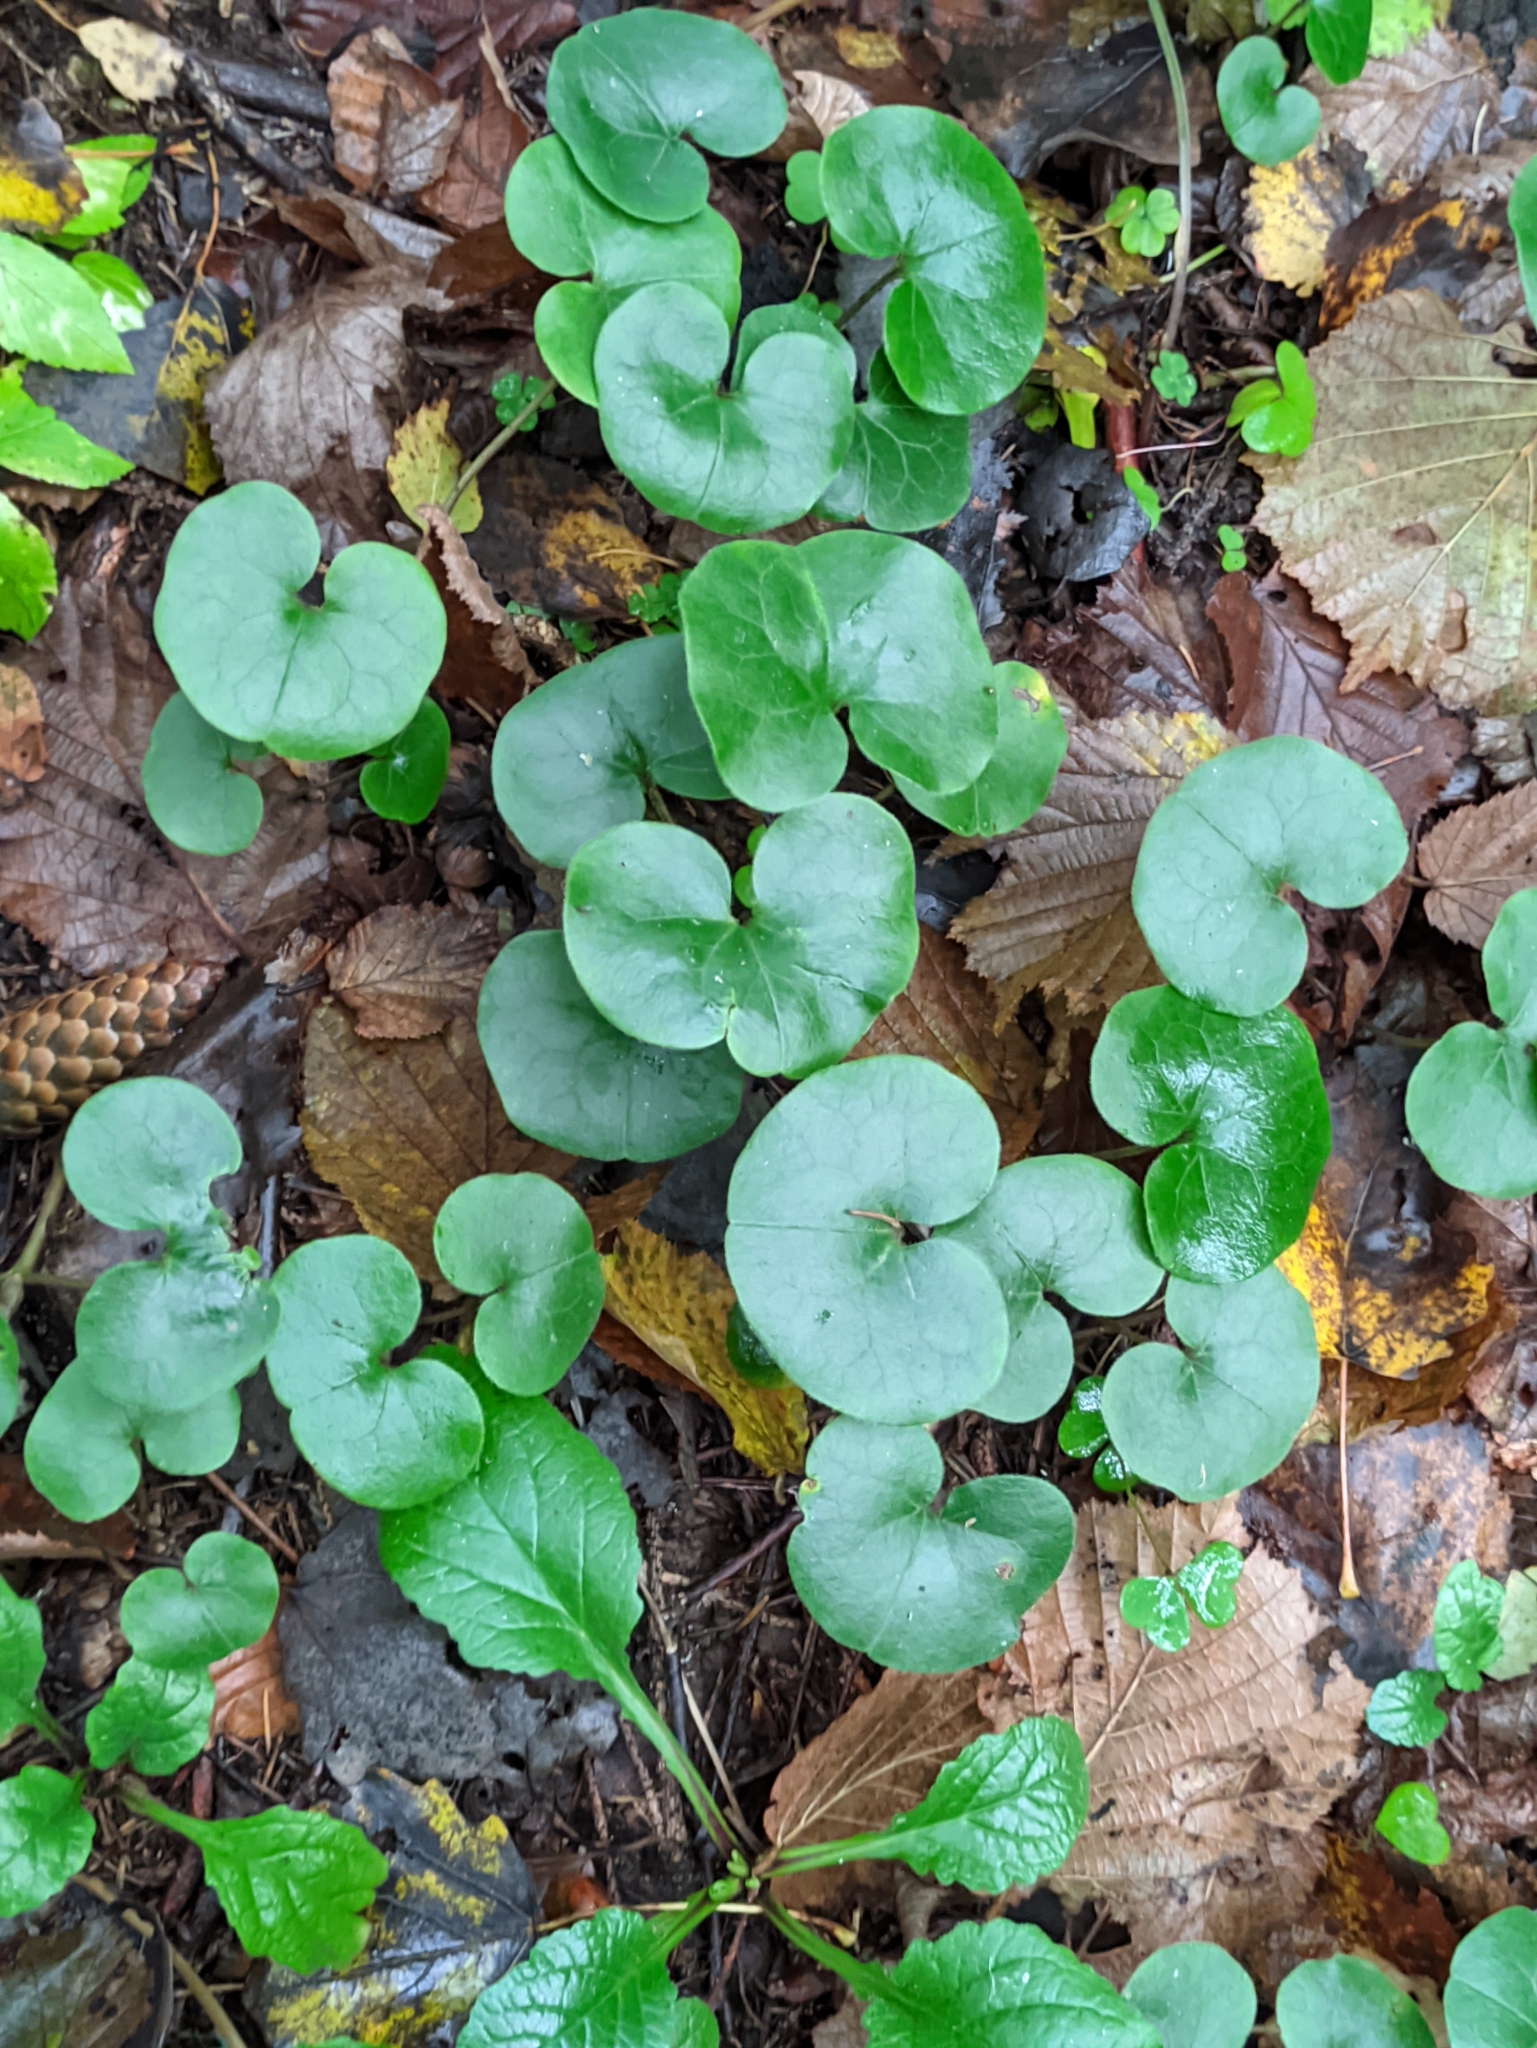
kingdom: Plantae
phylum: Tracheophyta
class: Magnoliopsida
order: Piperales
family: Aristolochiaceae
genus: Asarum
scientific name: Asarum europaeum
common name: Asarabacca
